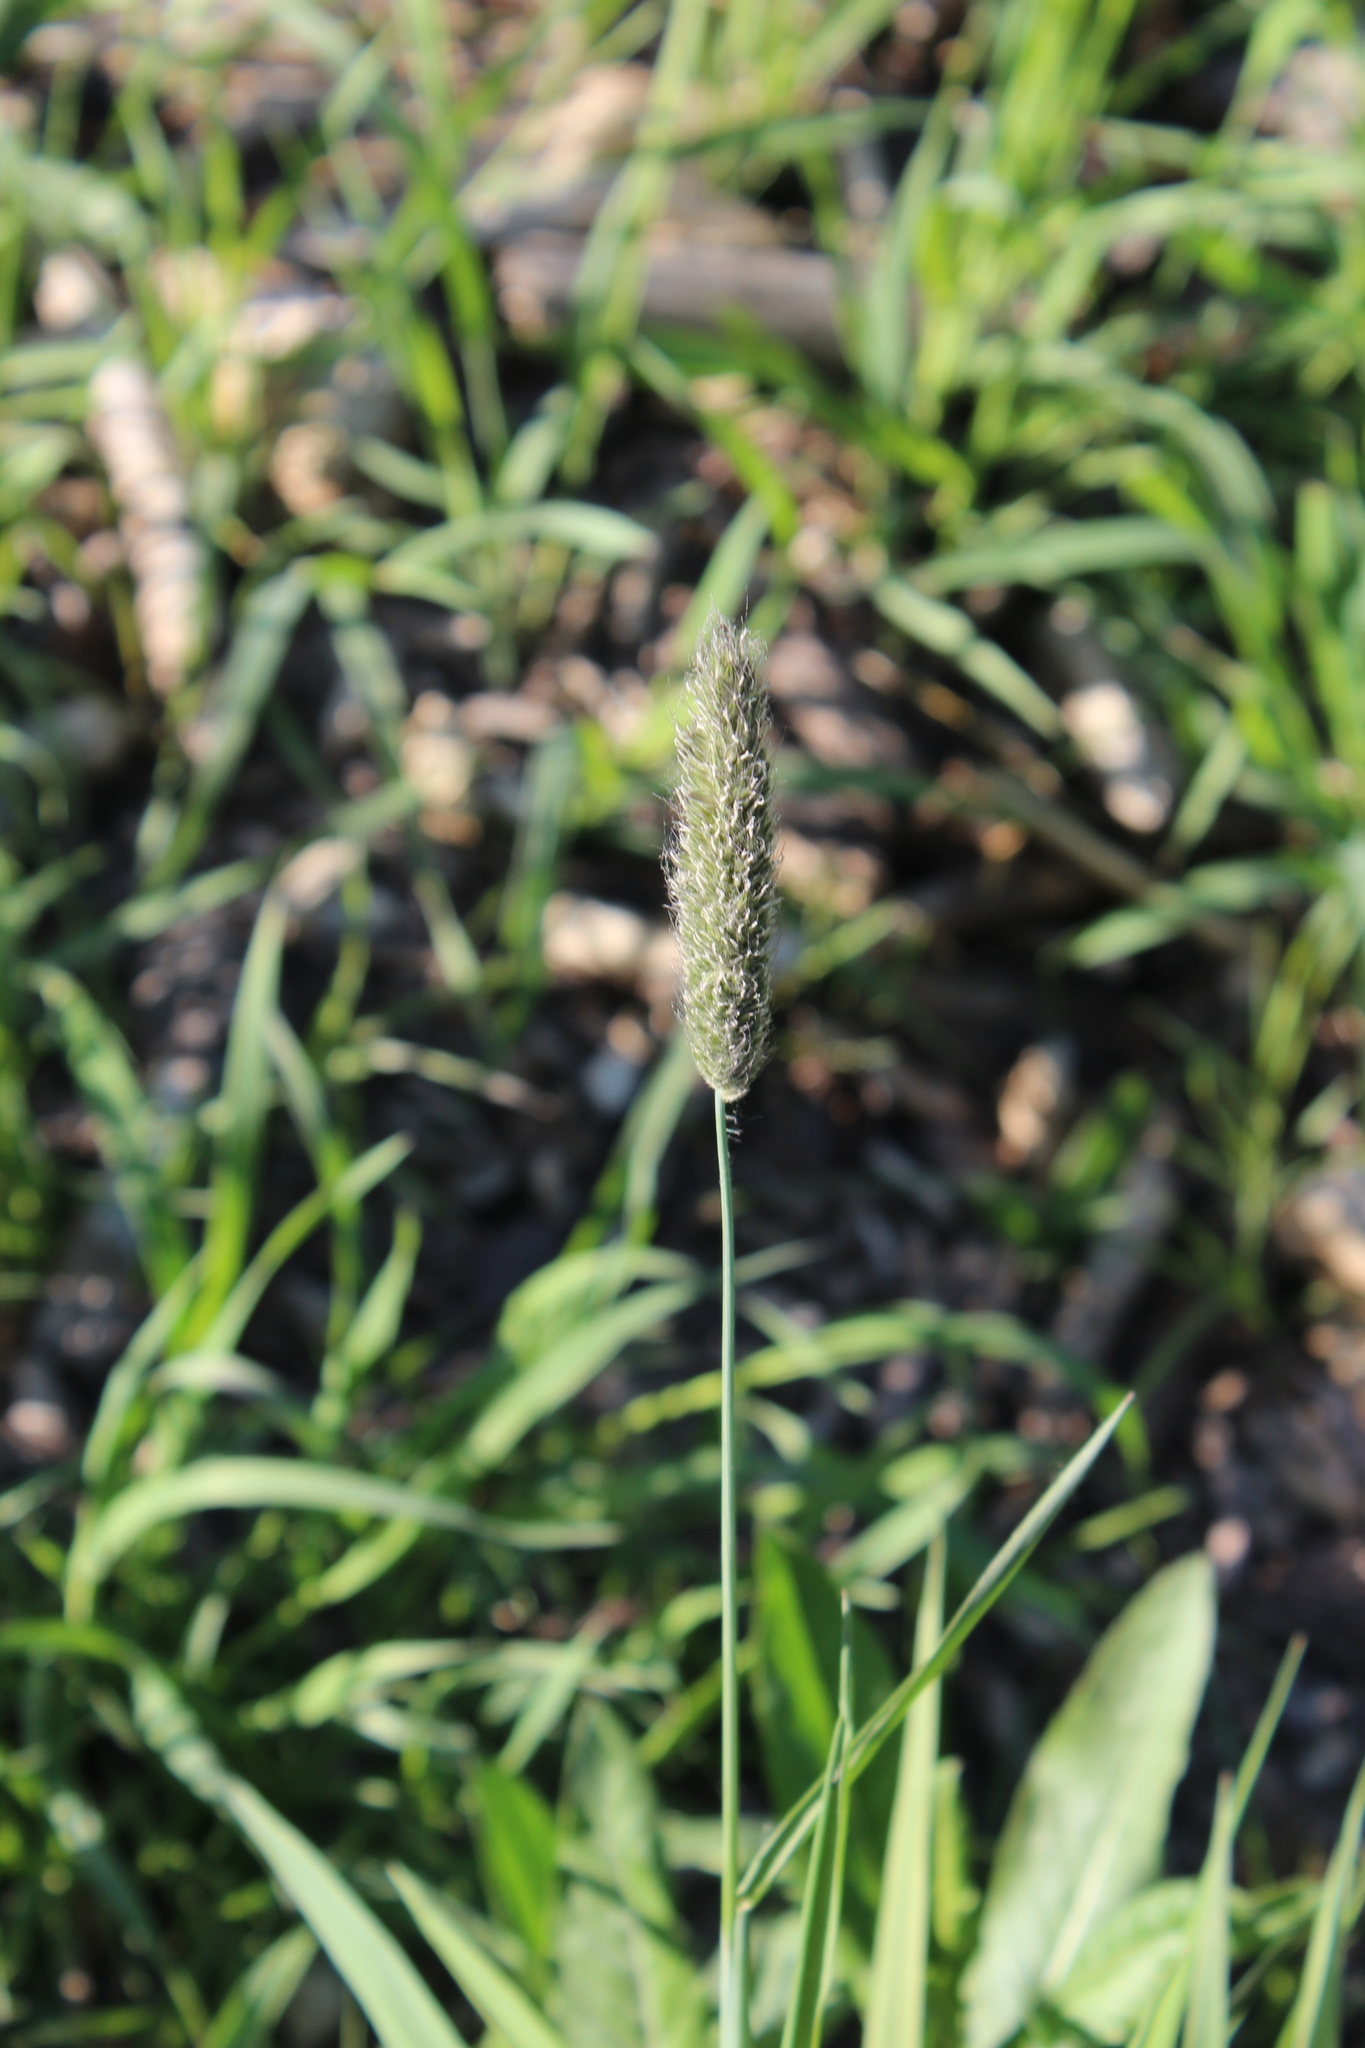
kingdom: Plantae
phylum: Tracheophyta
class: Liliopsida
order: Poales
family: Poaceae
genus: Alopecurus
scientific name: Alopecurus pratensis
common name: Meadow foxtail
